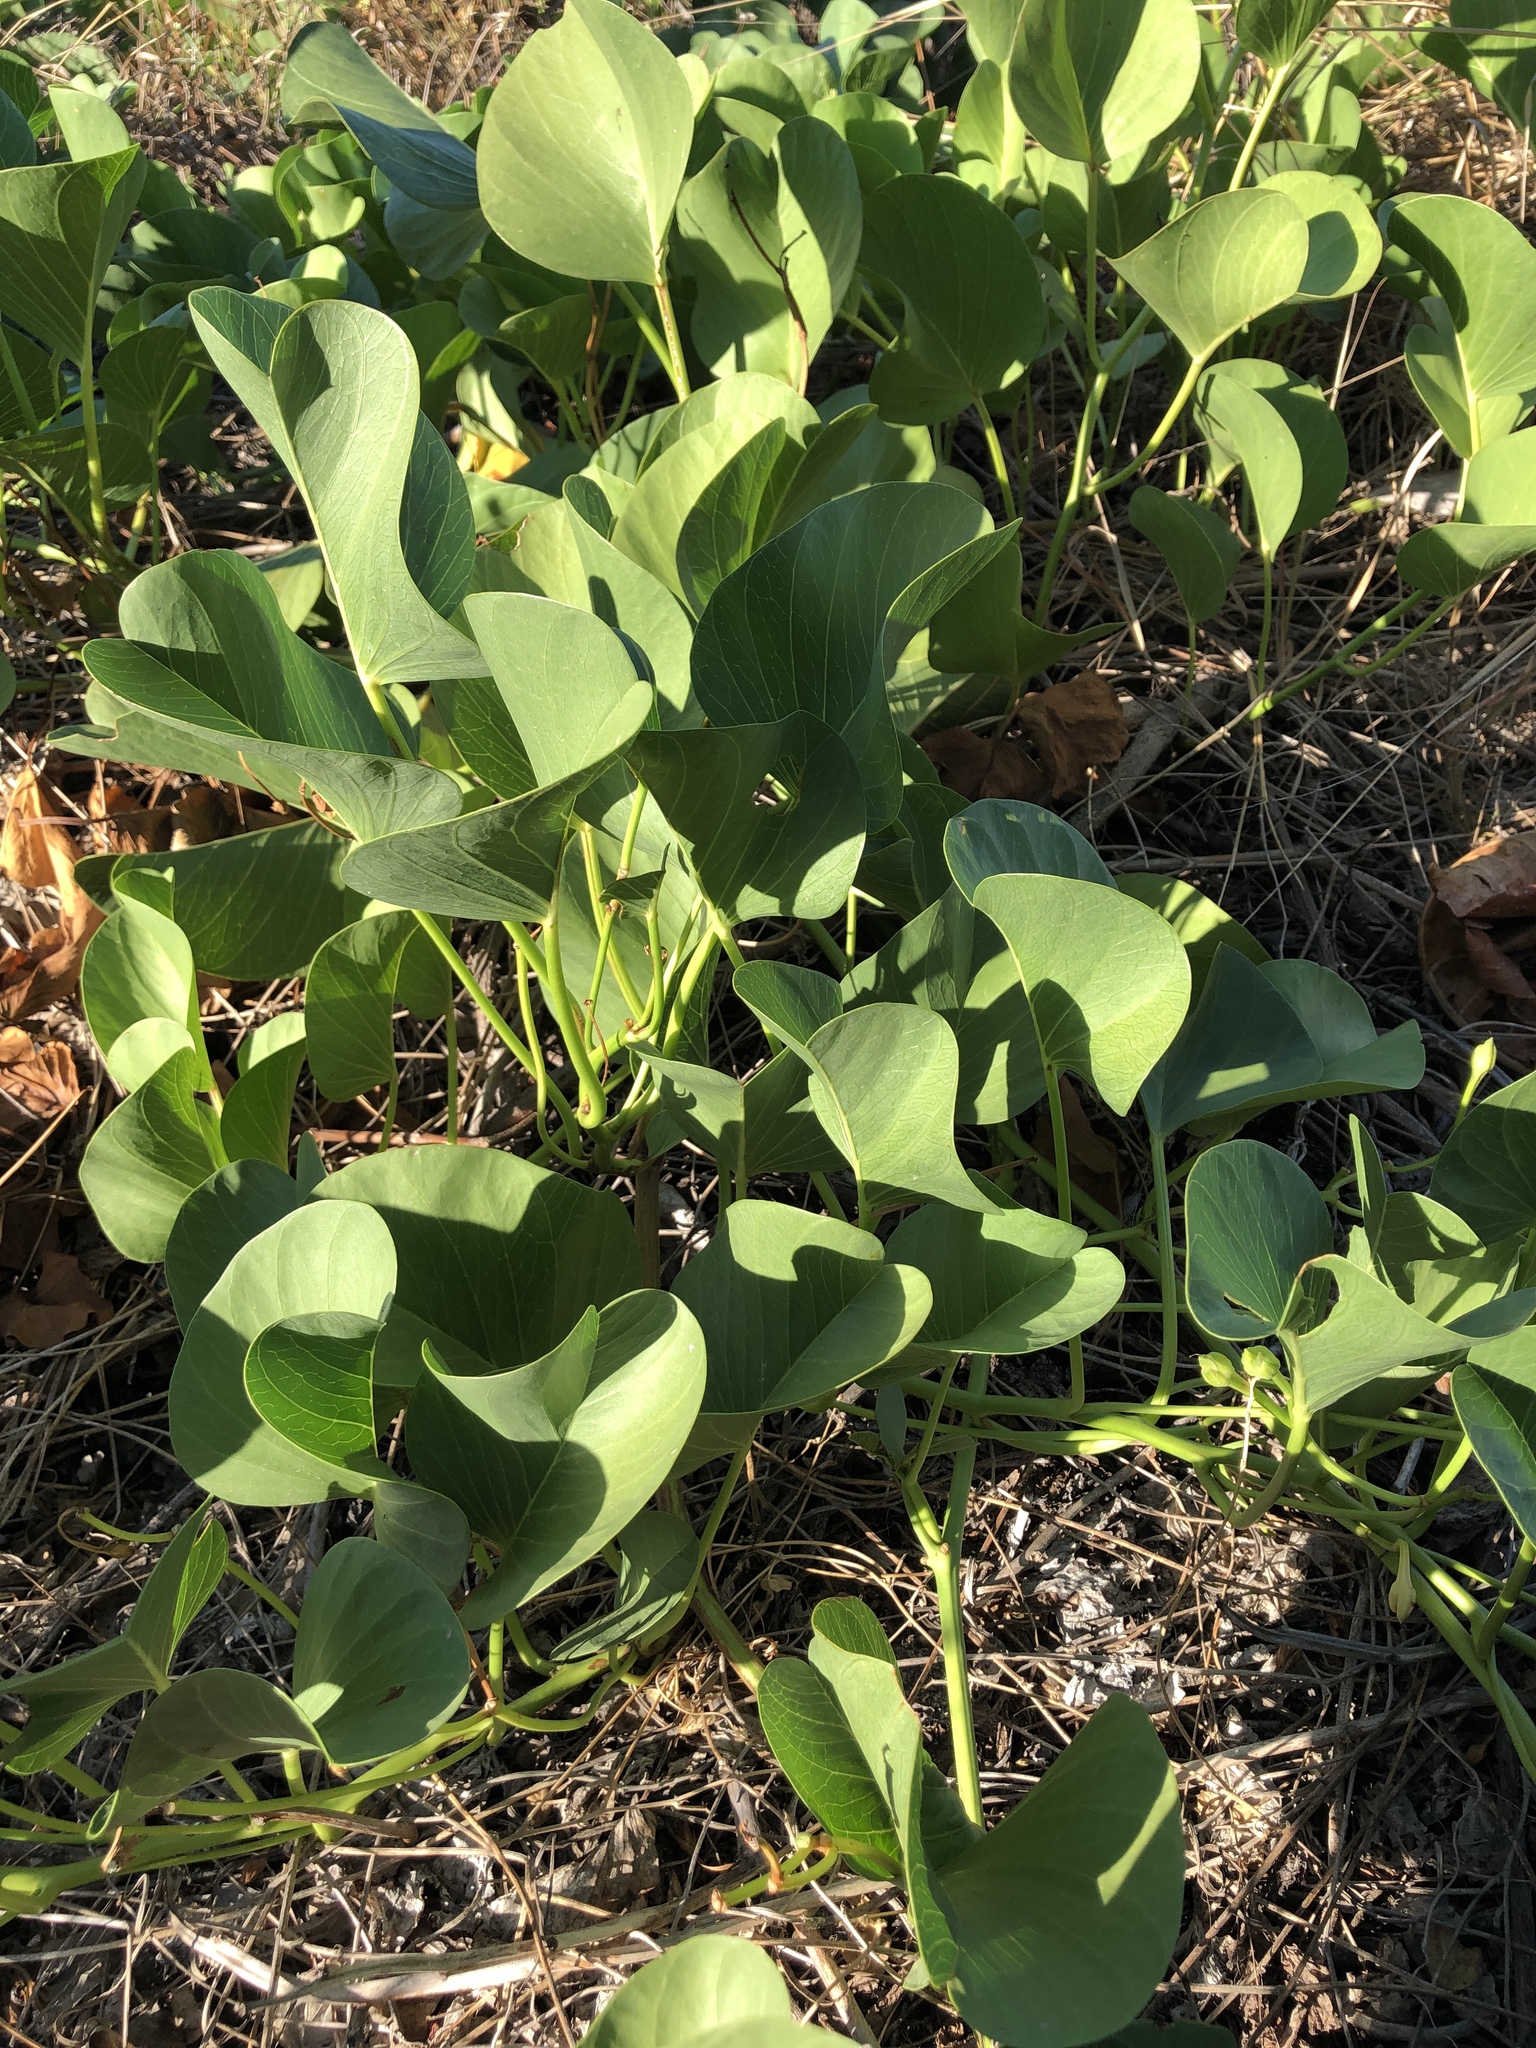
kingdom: Plantae
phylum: Tracheophyta
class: Magnoliopsida
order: Solanales
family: Convolvulaceae
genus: Ipomoea
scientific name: Ipomoea pes-caprae
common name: Beach morning glory
